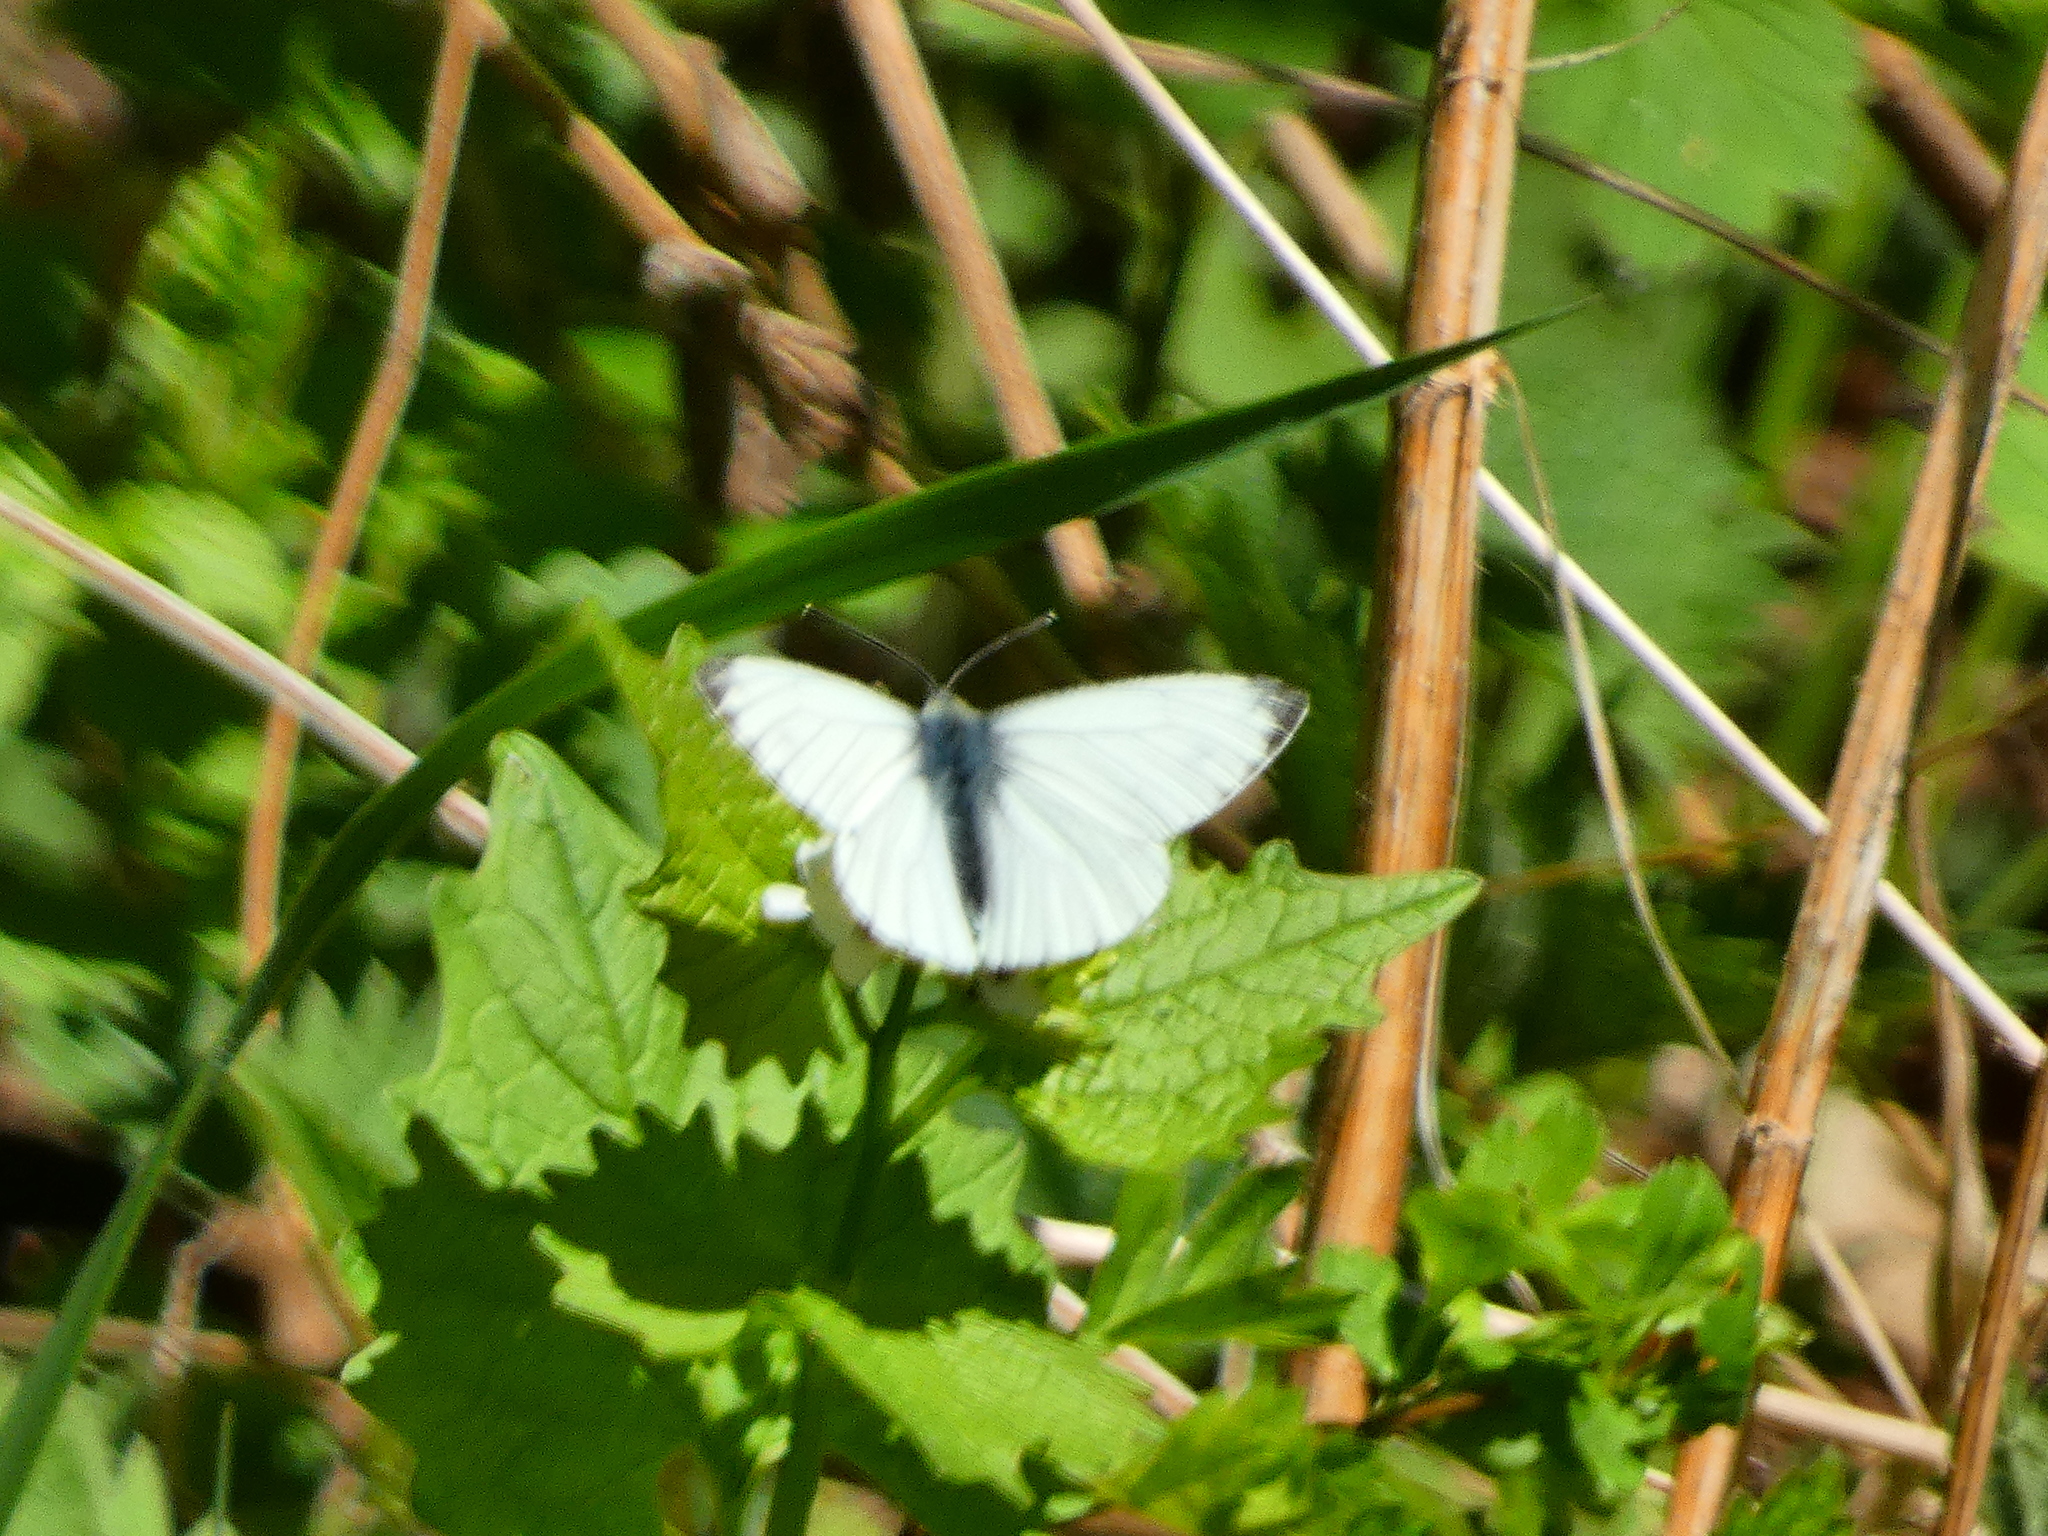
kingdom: Animalia
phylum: Arthropoda
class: Insecta
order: Lepidoptera
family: Pieridae
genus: Pieris
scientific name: Pieris napi
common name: Green-veined white
